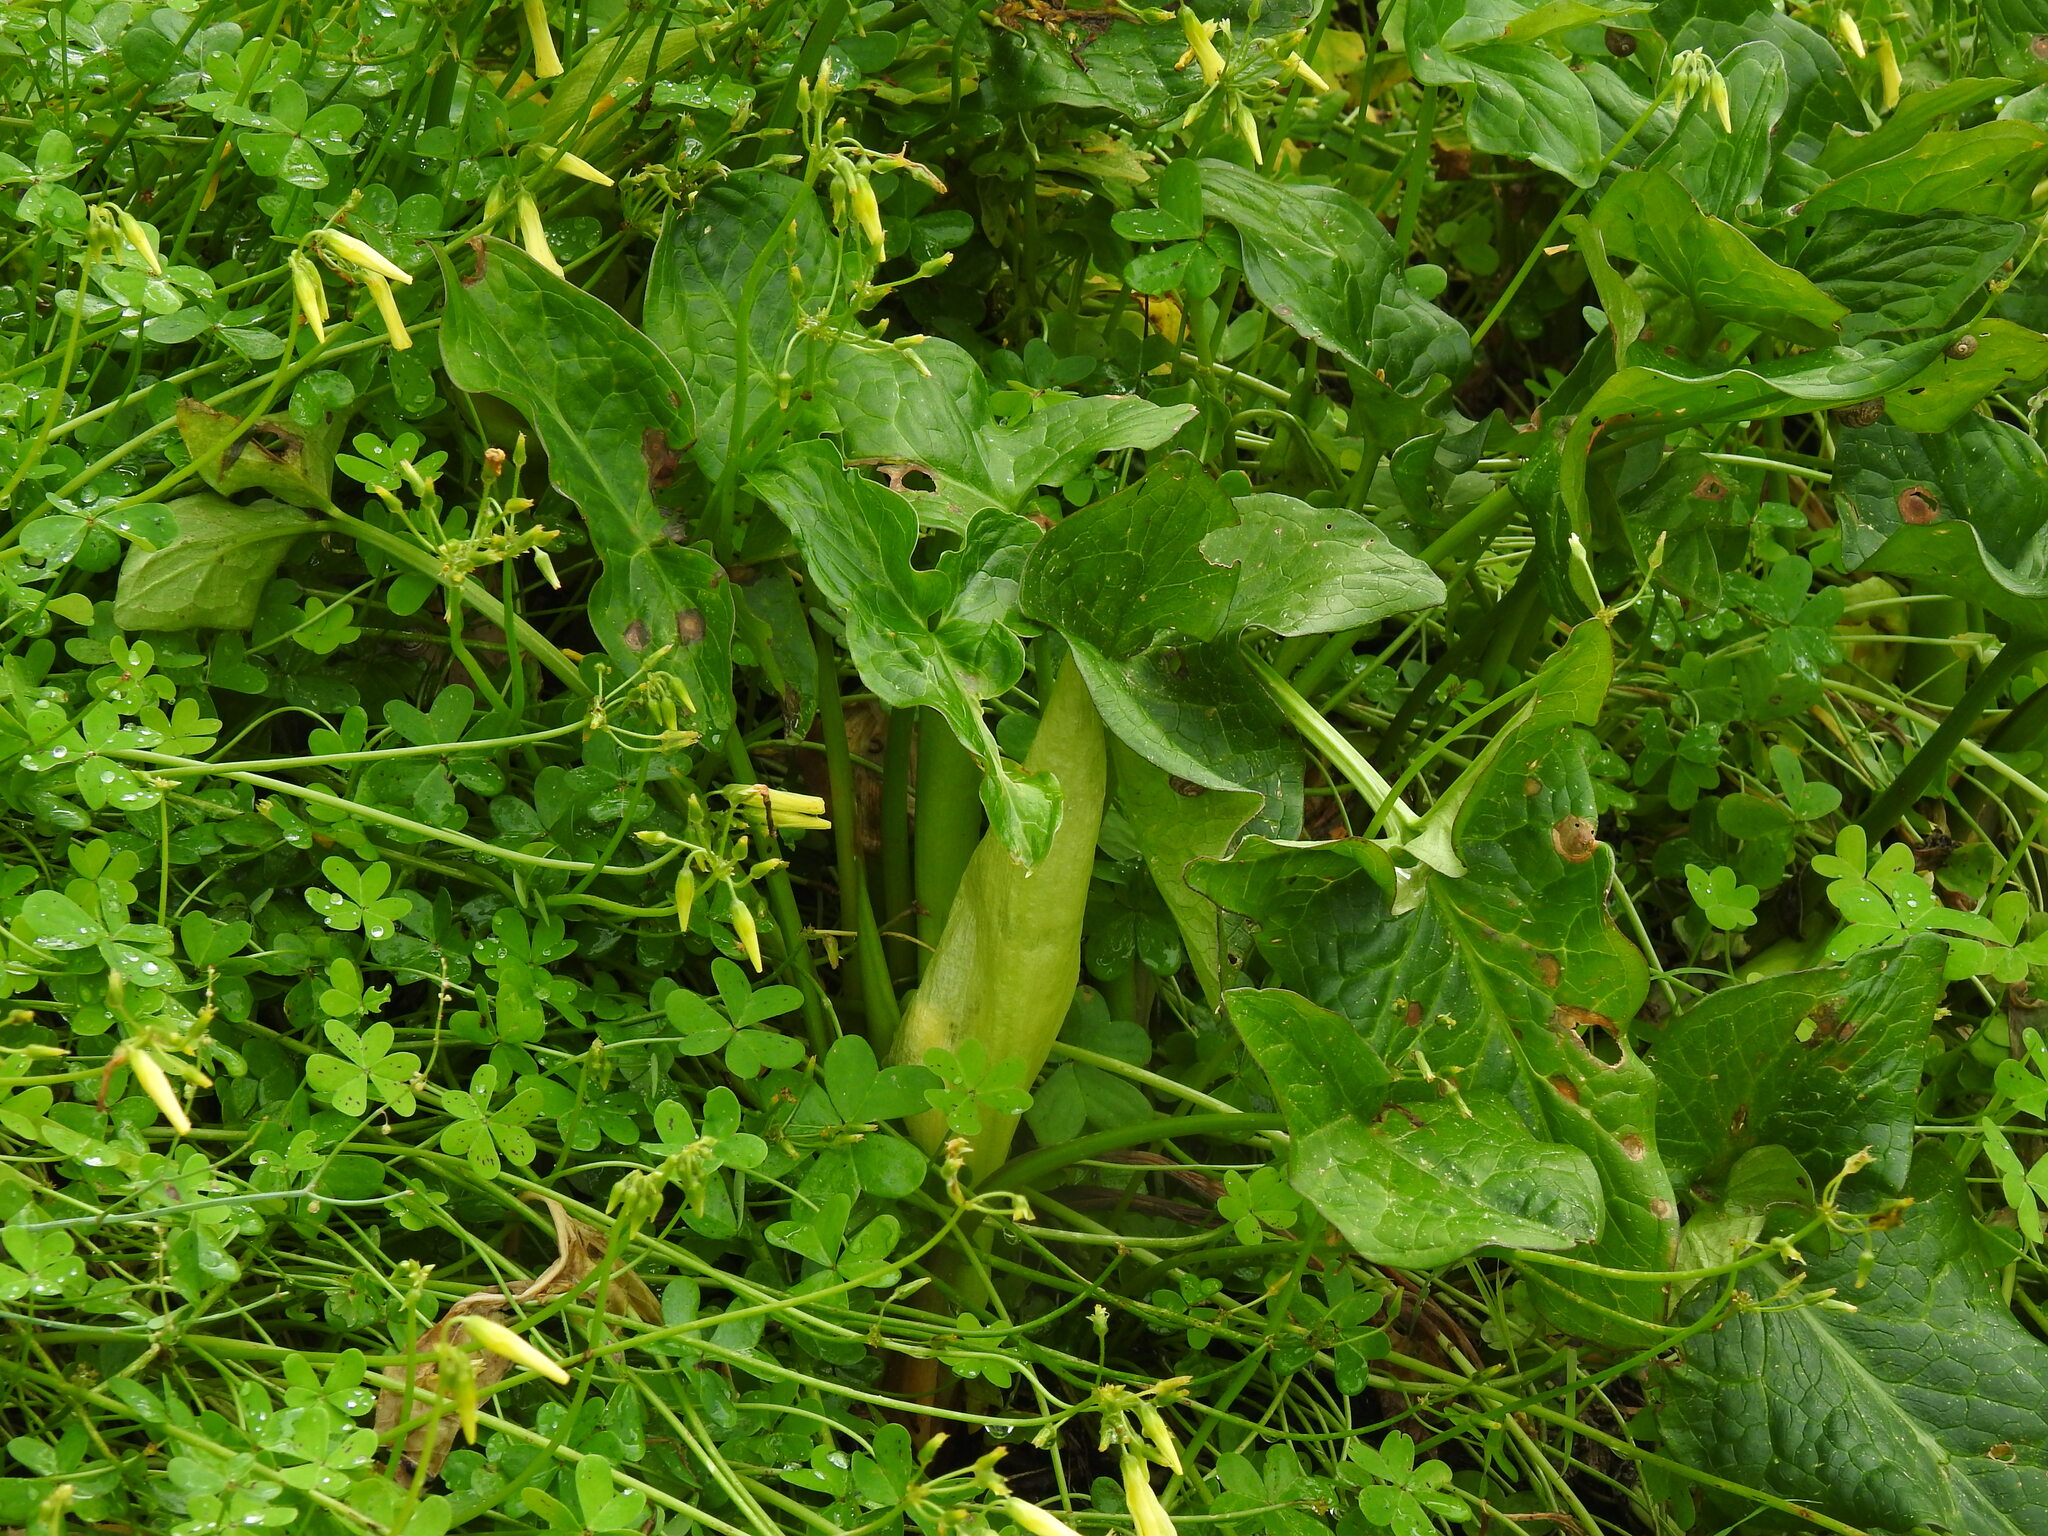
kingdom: Plantae
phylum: Tracheophyta
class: Liliopsida
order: Alismatales
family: Araceae
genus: Arum
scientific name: Arum italicum
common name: Italian lords-and-ladies
